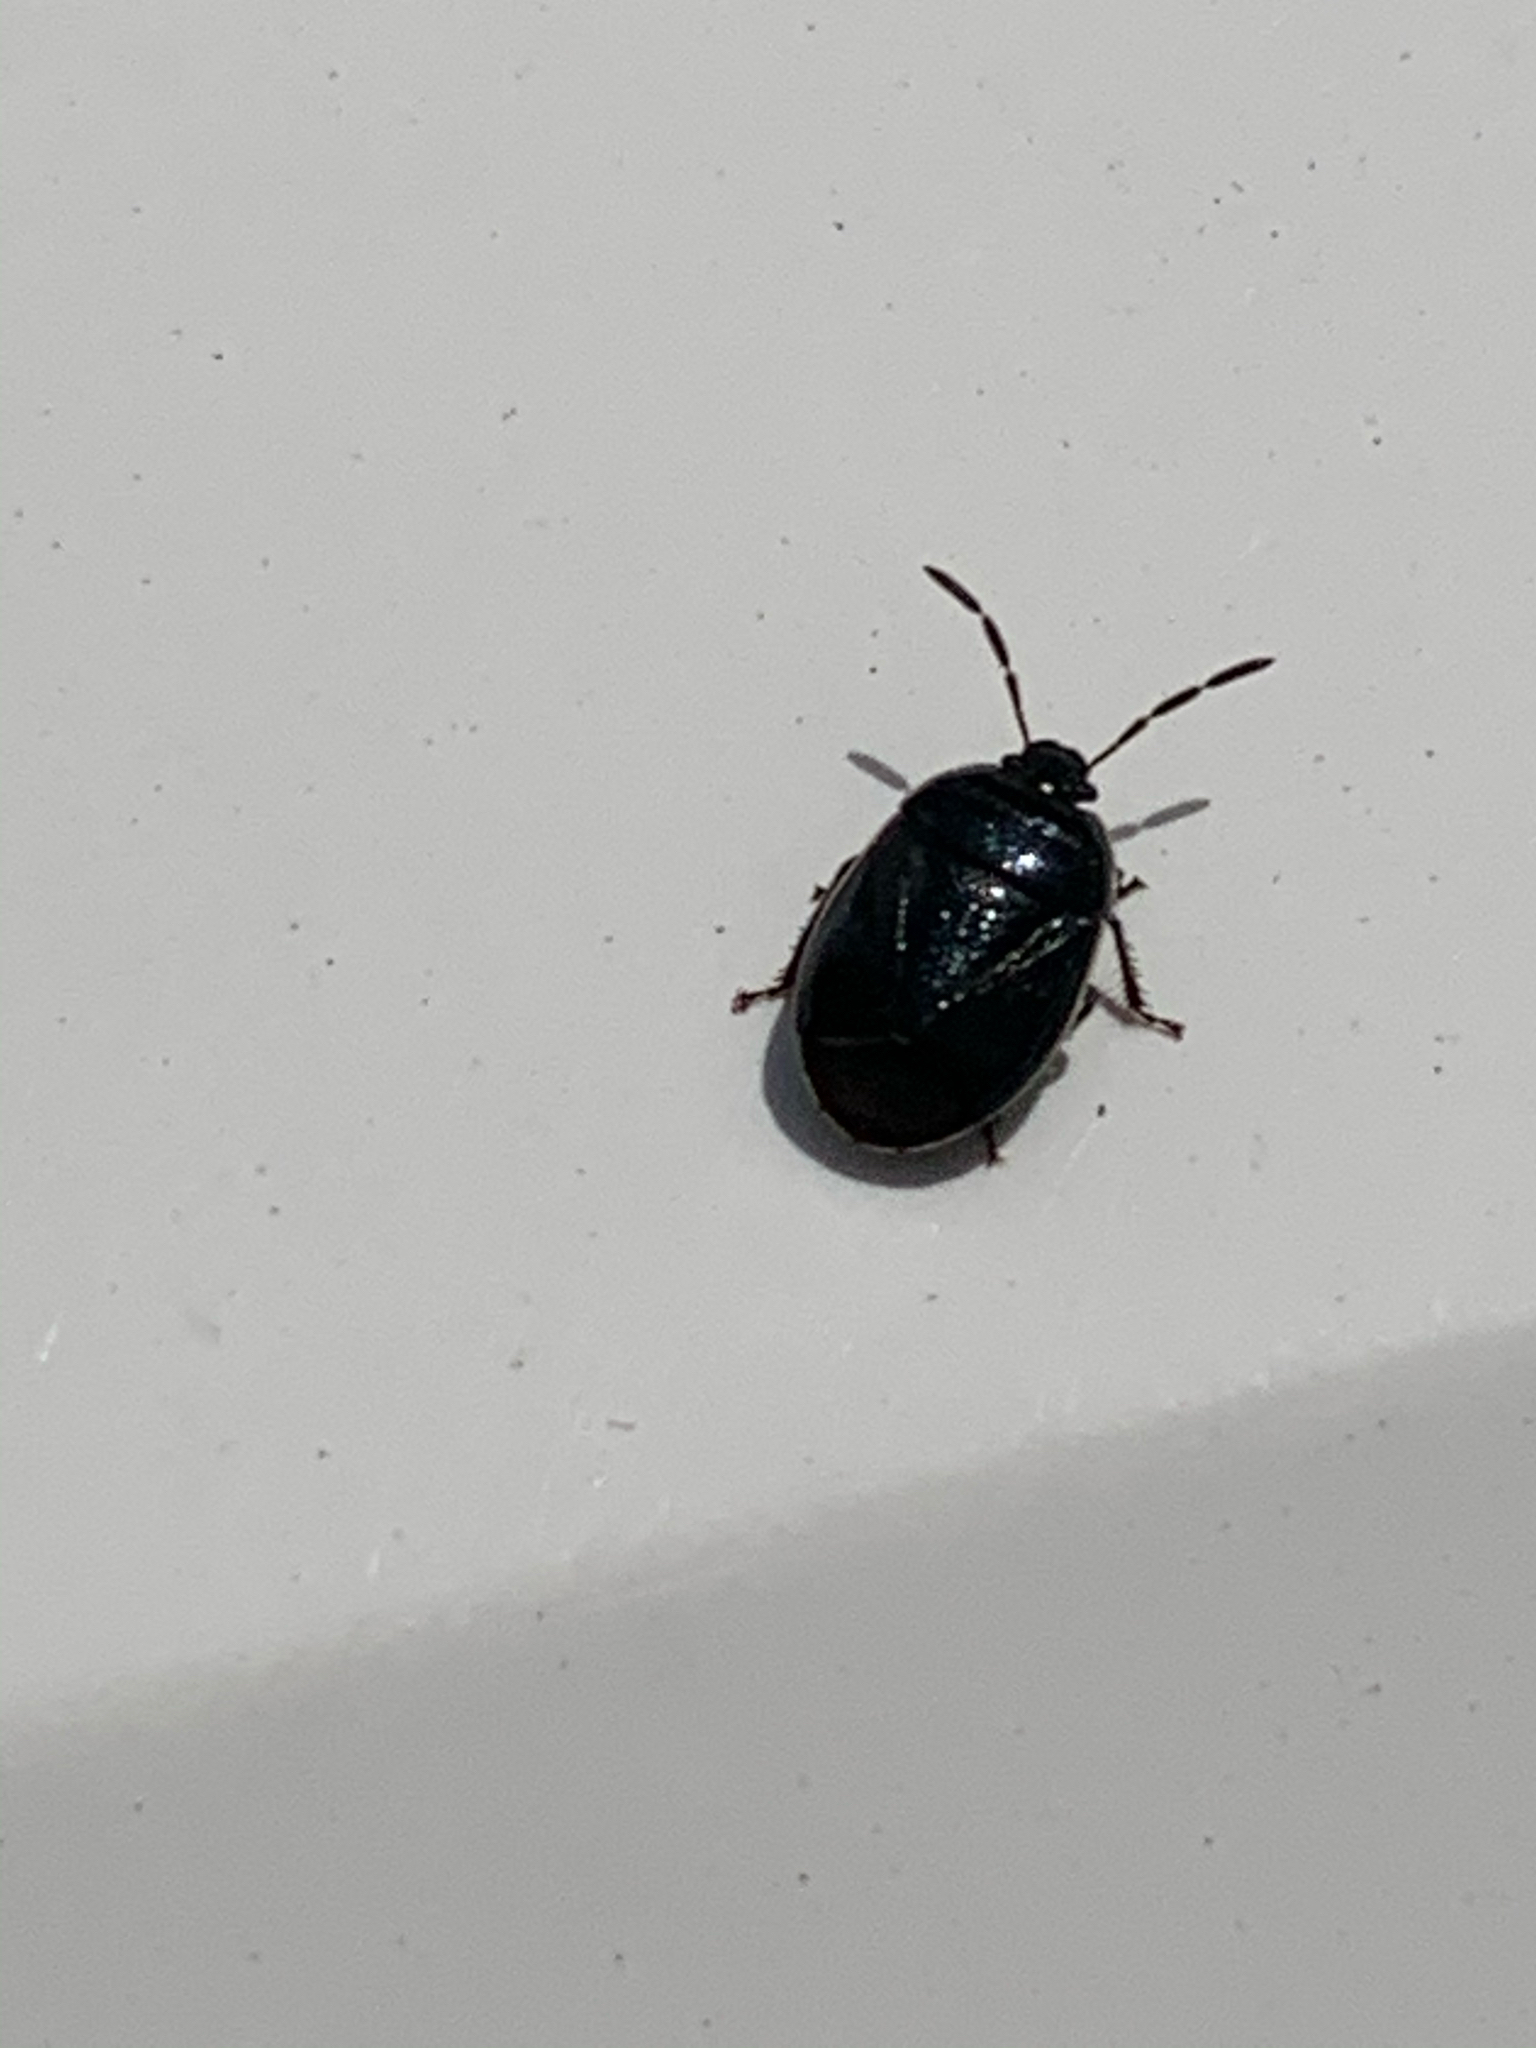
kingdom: Animalia
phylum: Arthropoda
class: Insecta
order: Hemiptera
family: Cydnidae
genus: Sehirus
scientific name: Sehirus cinctus
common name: White-margined burrower bug
